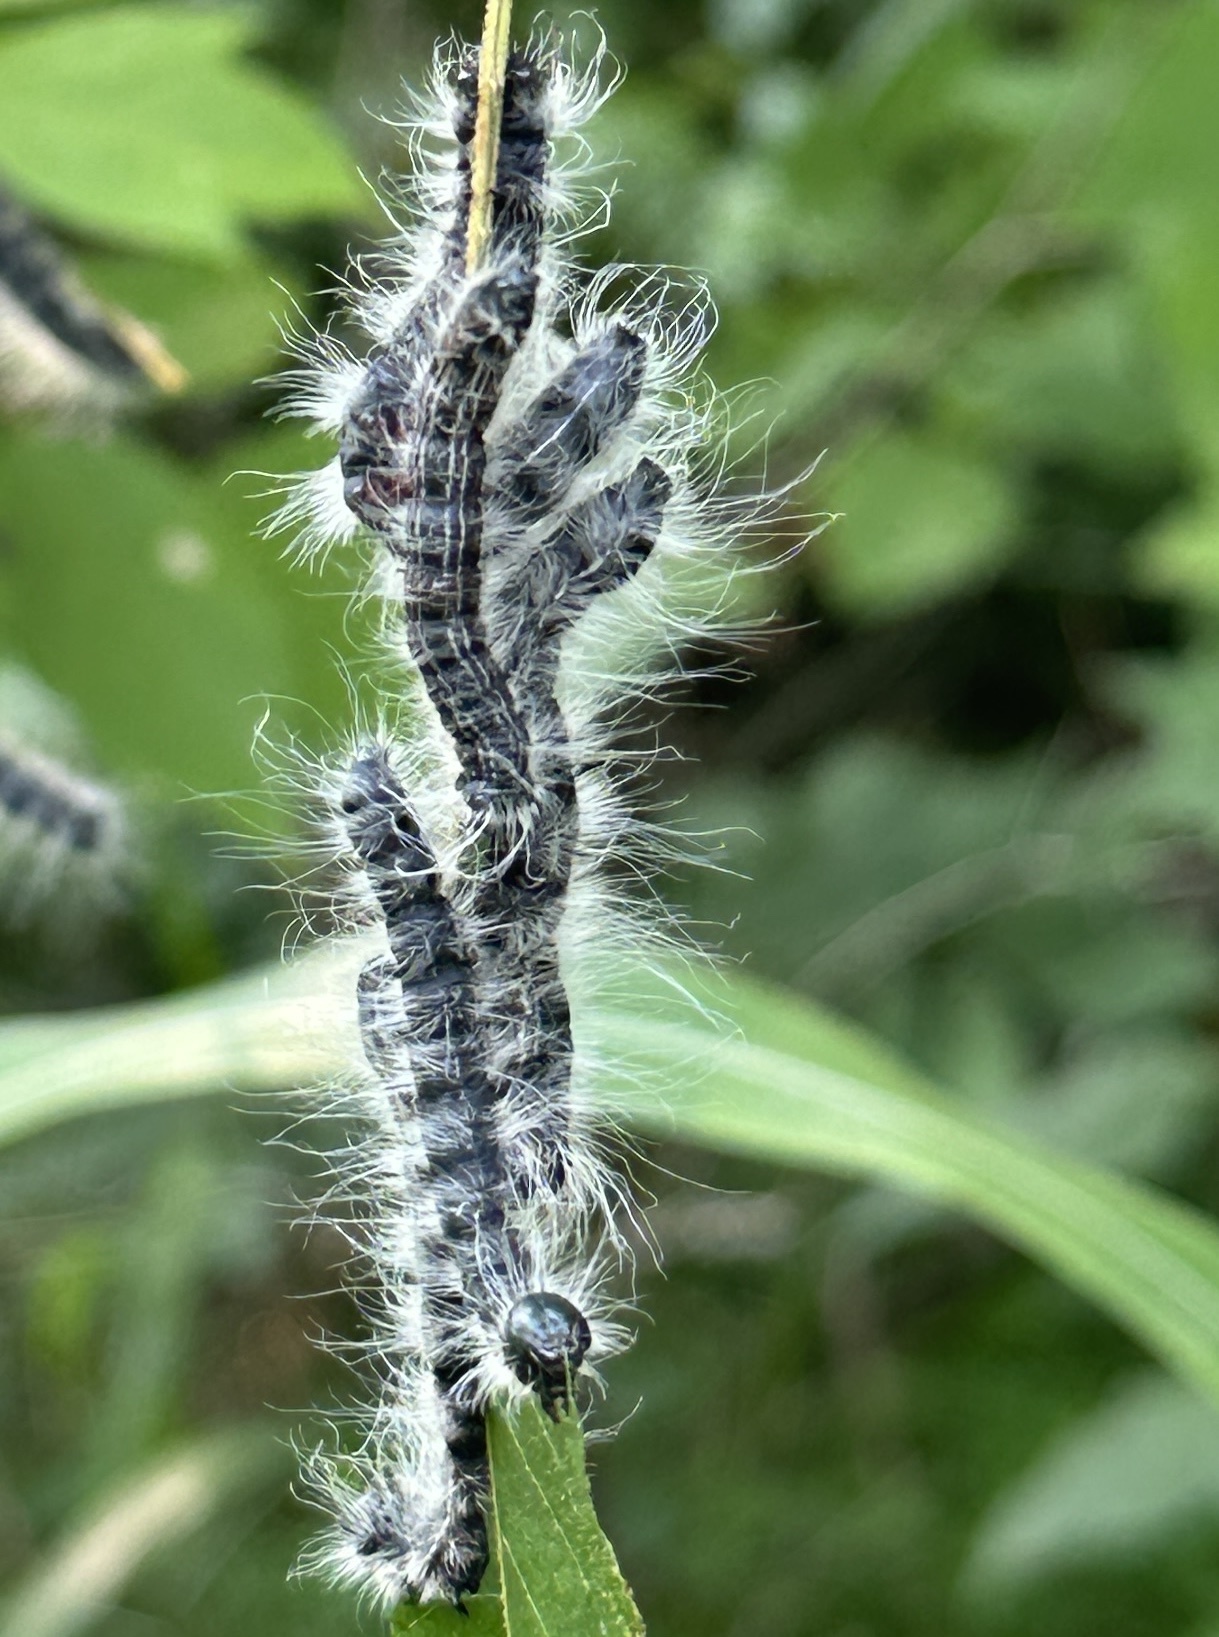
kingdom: Animalia
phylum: Arthropoda
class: Insecta
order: Lepidoptera
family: Notodontidae
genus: Datana
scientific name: Datana integerrima
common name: Walnut caterpillar
